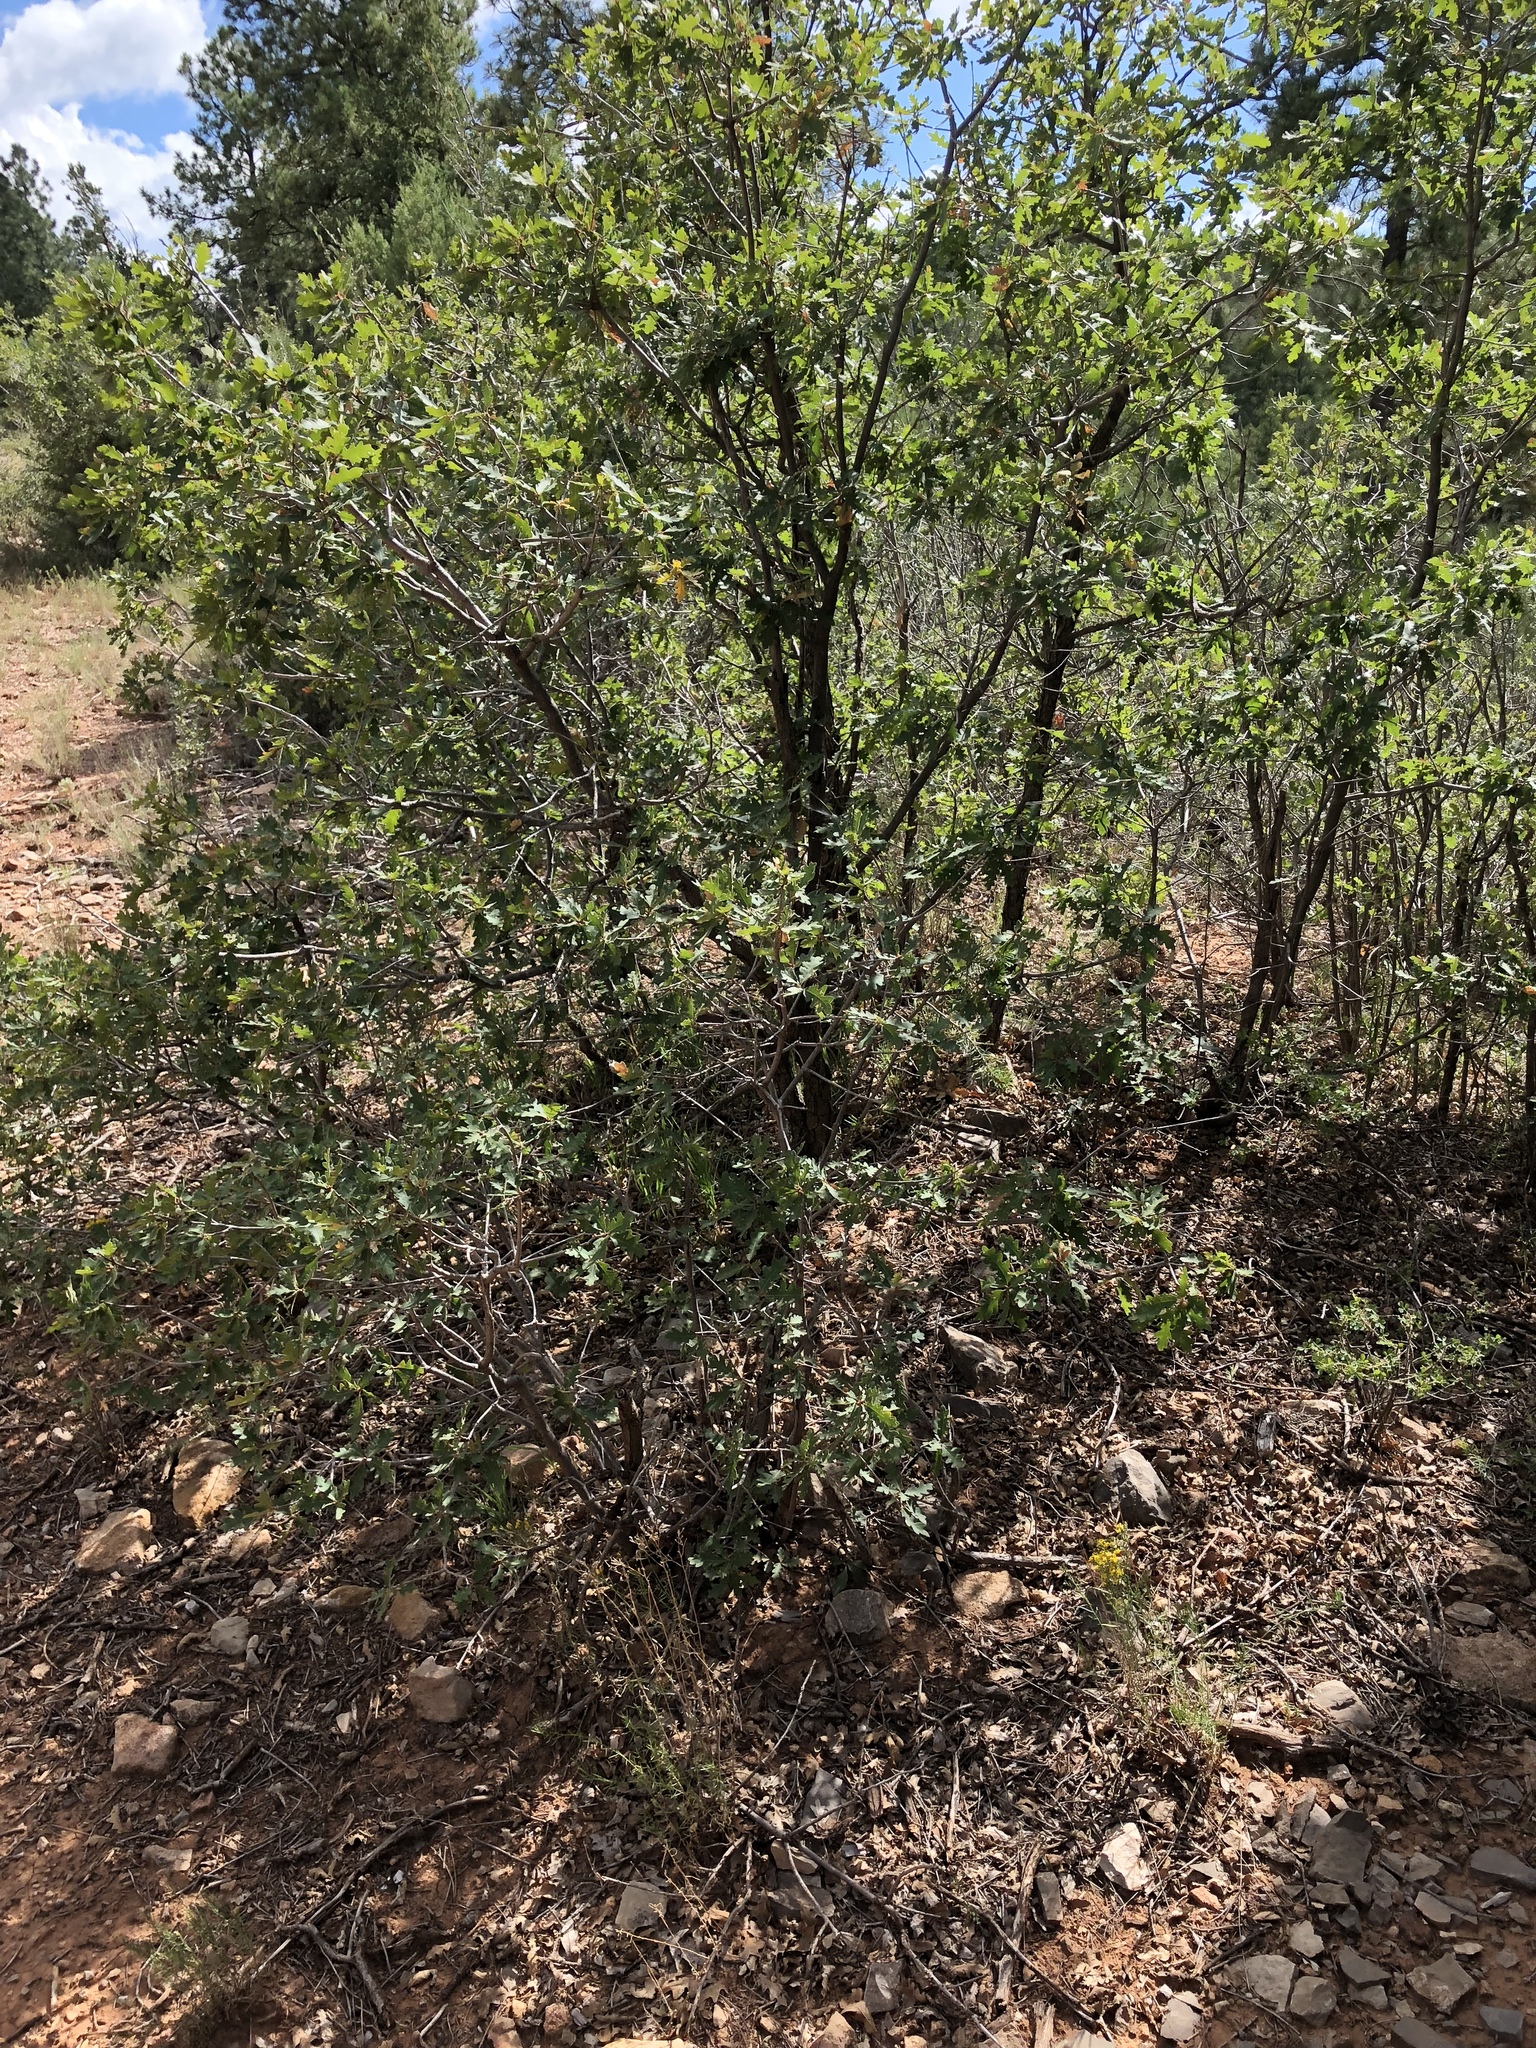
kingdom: Plantae
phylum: Tracheophyta
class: Magnoliopsida
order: Fagales
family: Fagaceae
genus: Quercus
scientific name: Quercus gambelii
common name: Gambel oak
